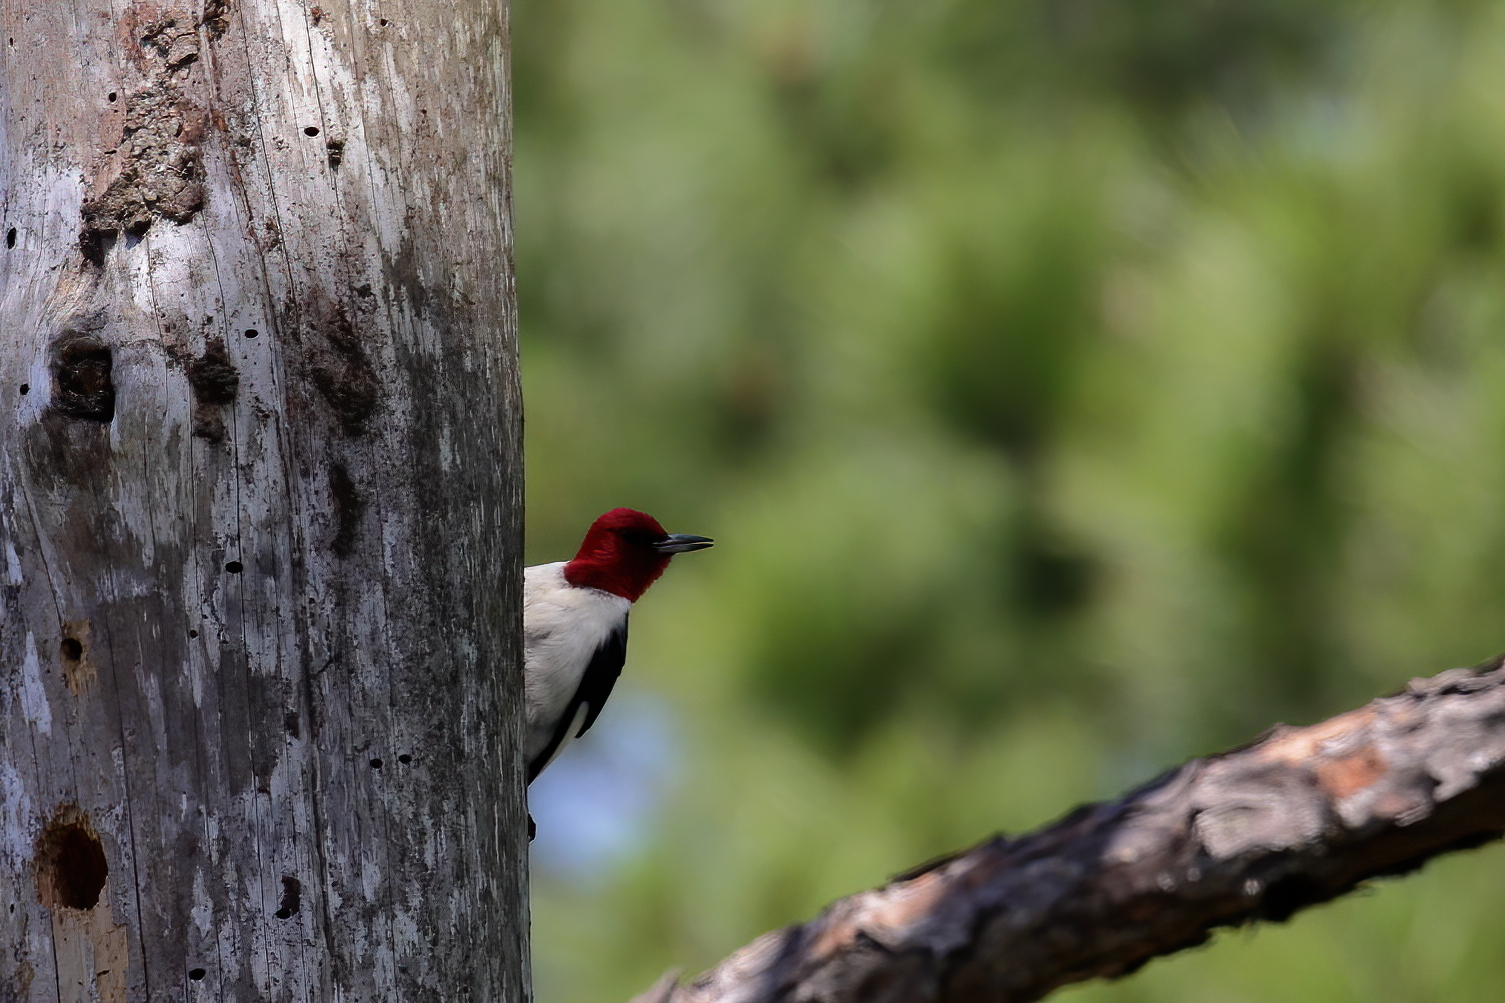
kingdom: Animalia
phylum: Chordata
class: Aves
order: Piciformes
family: Picidae
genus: Melanerpes
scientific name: Melanerpes erythrocephalus
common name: Red-headed woodpecker
